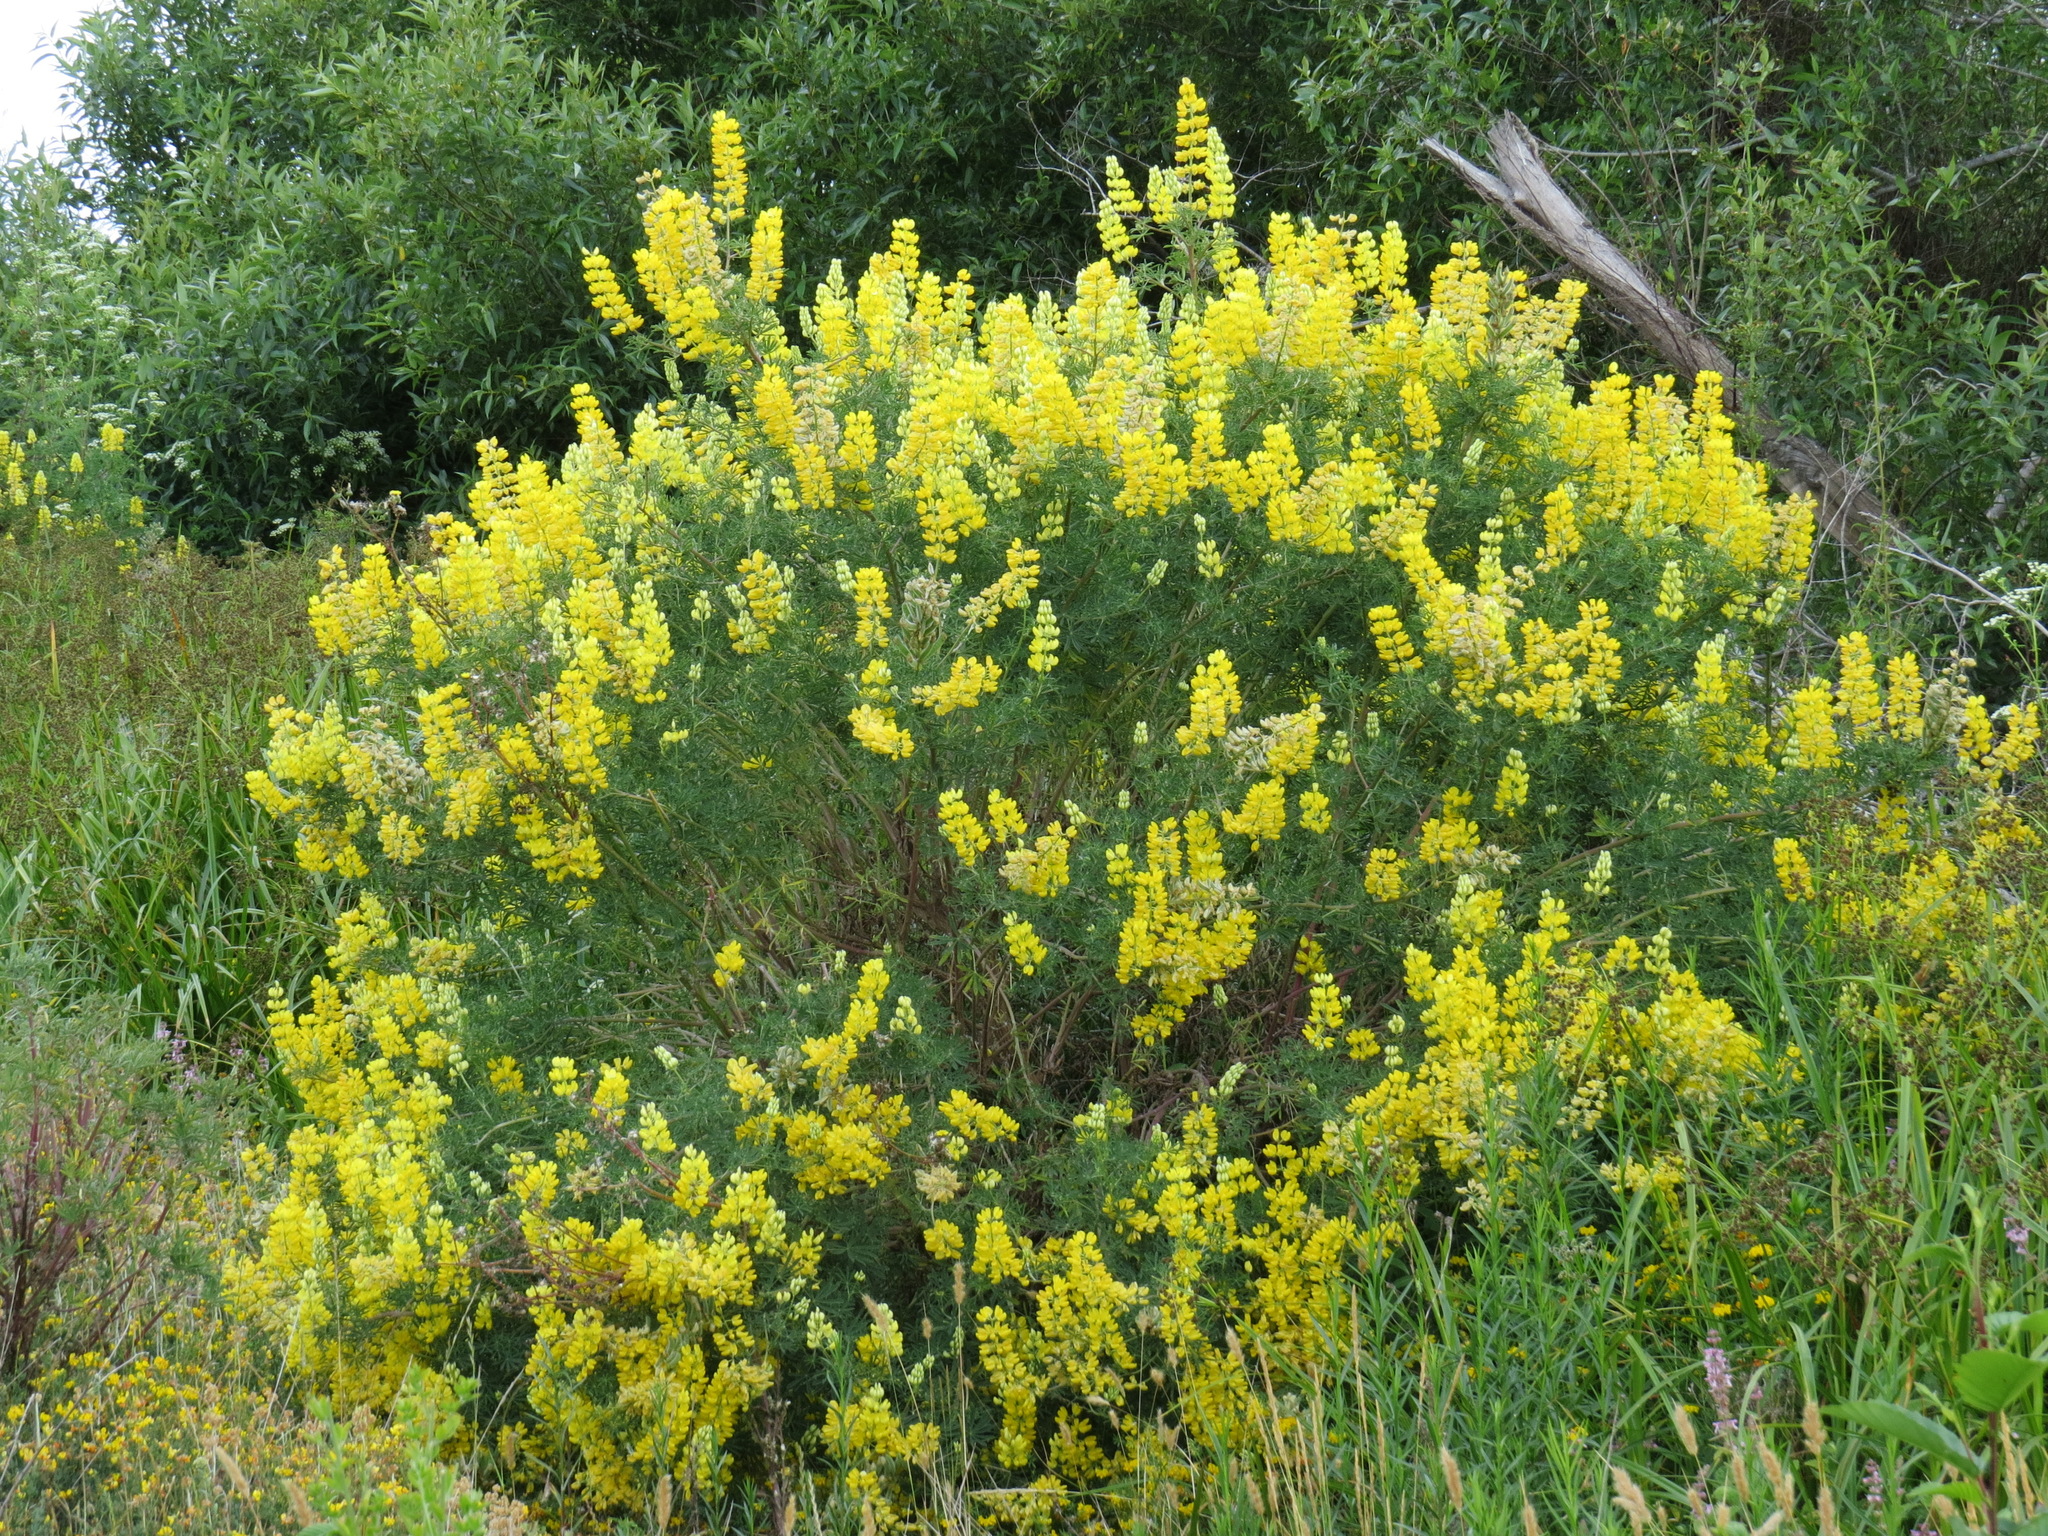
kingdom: Plantae
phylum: Tracheophyta
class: Magnoliopsida
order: Fabales
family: Fabaceae
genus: Lupinus
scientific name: Lupinus arboreus
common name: Yellow bush lupine
